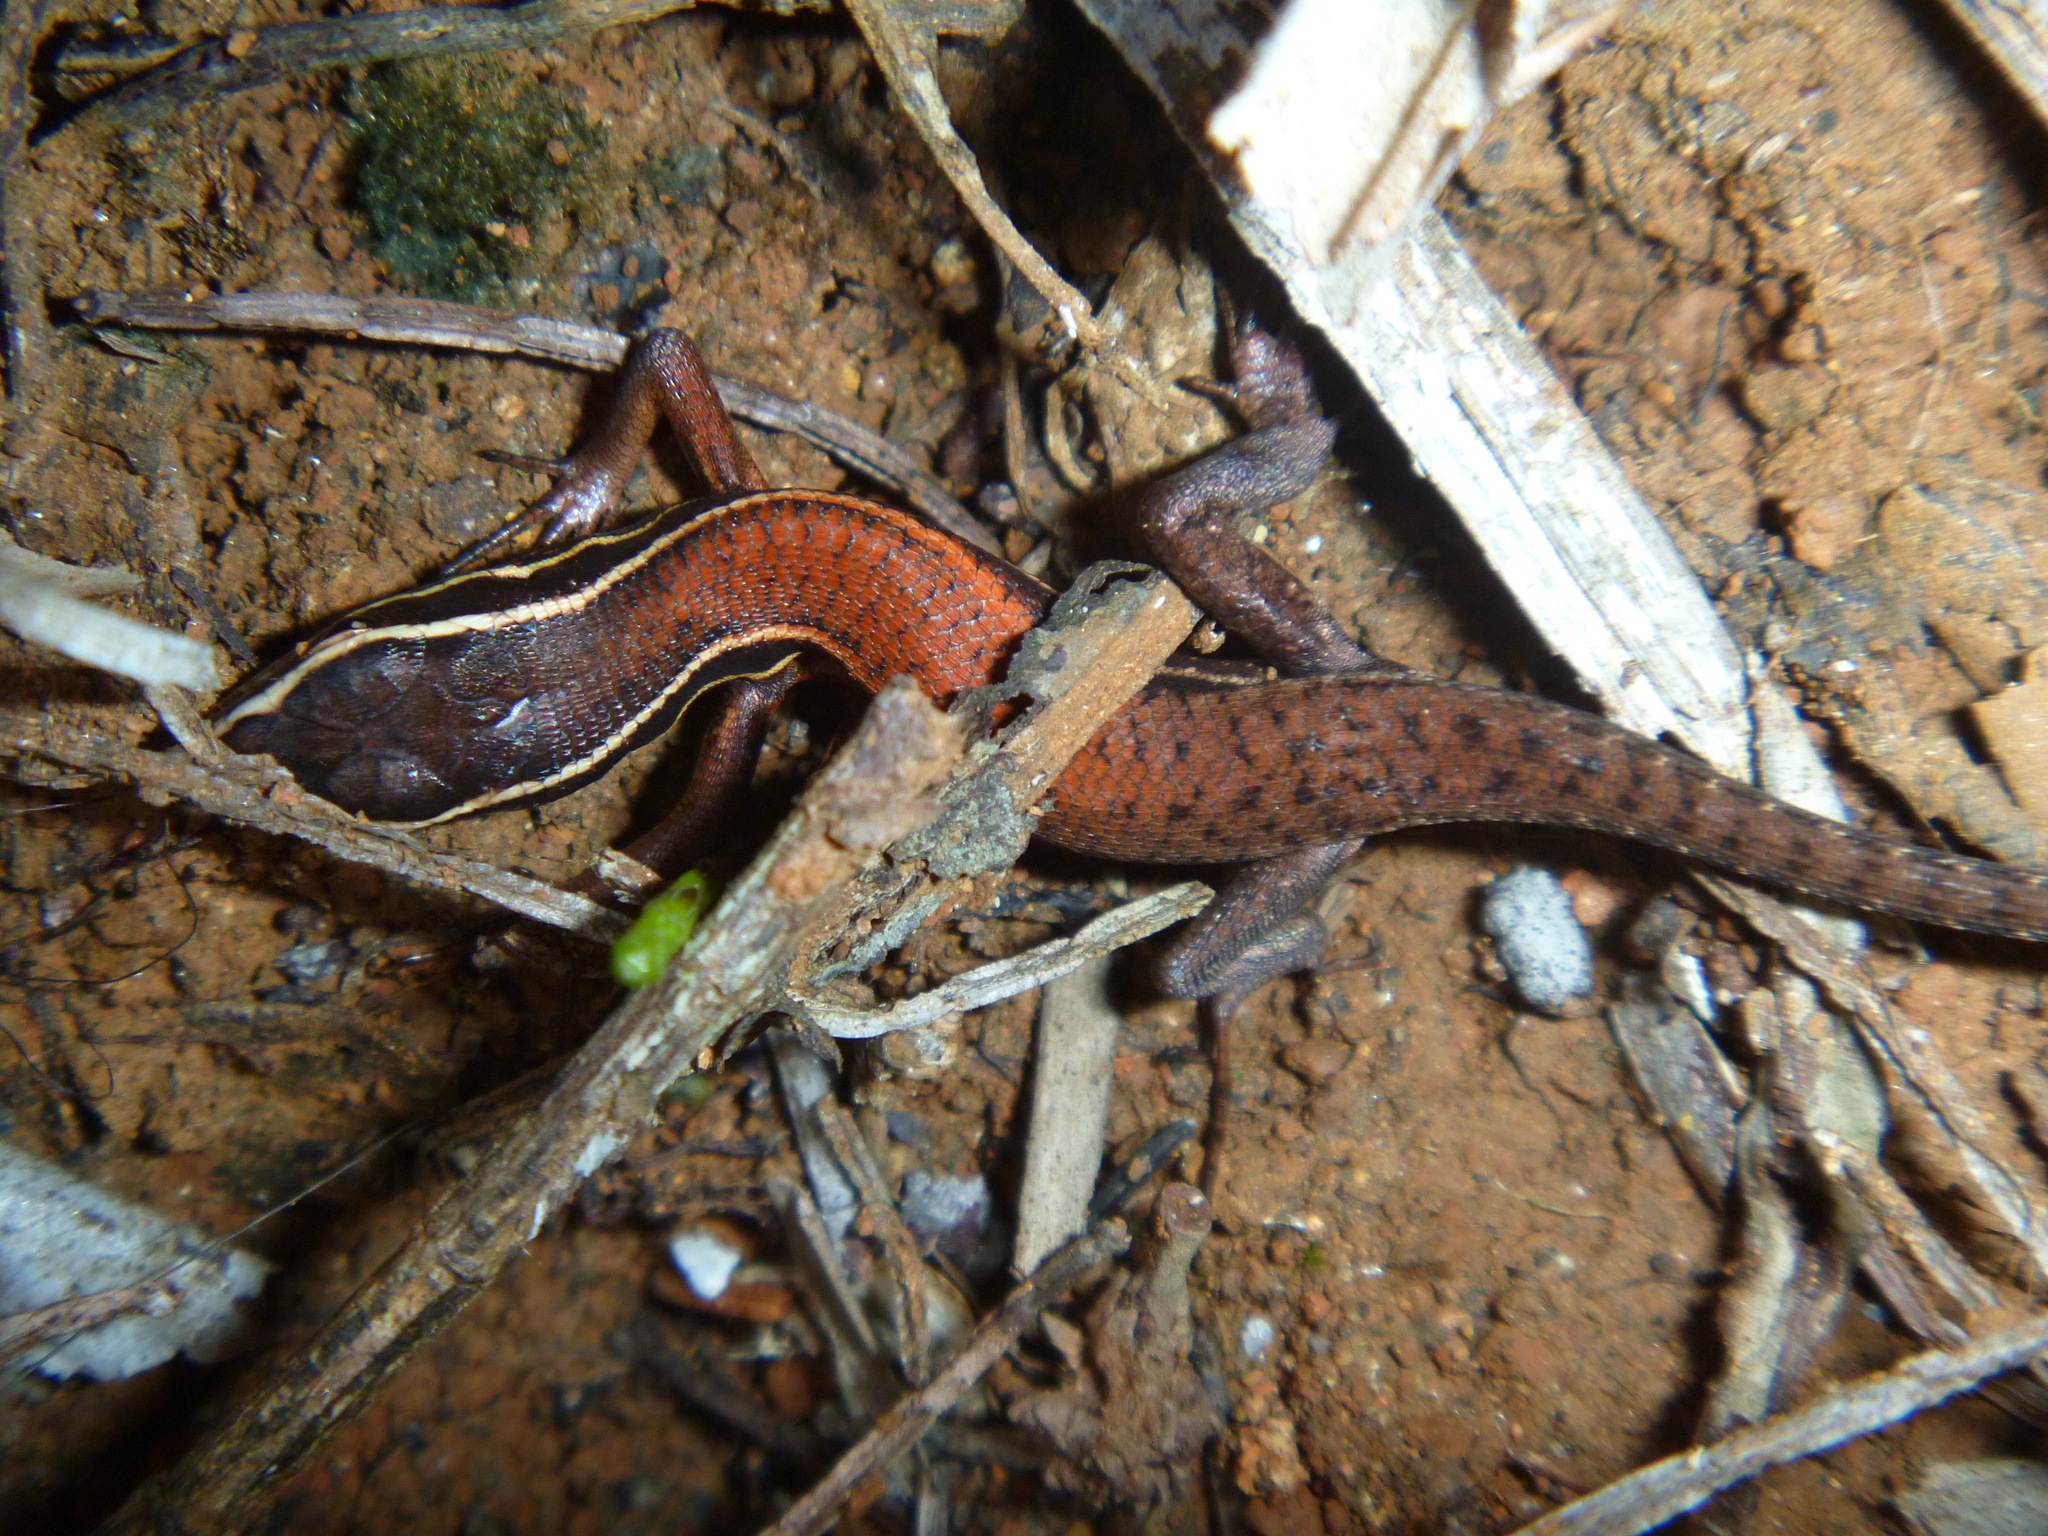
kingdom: Animalia
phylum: Chordata
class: Squamata
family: Scincidae
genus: Tropidoscincus
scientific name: Tropidoscincus variabilis
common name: Southern whiptailed skink
